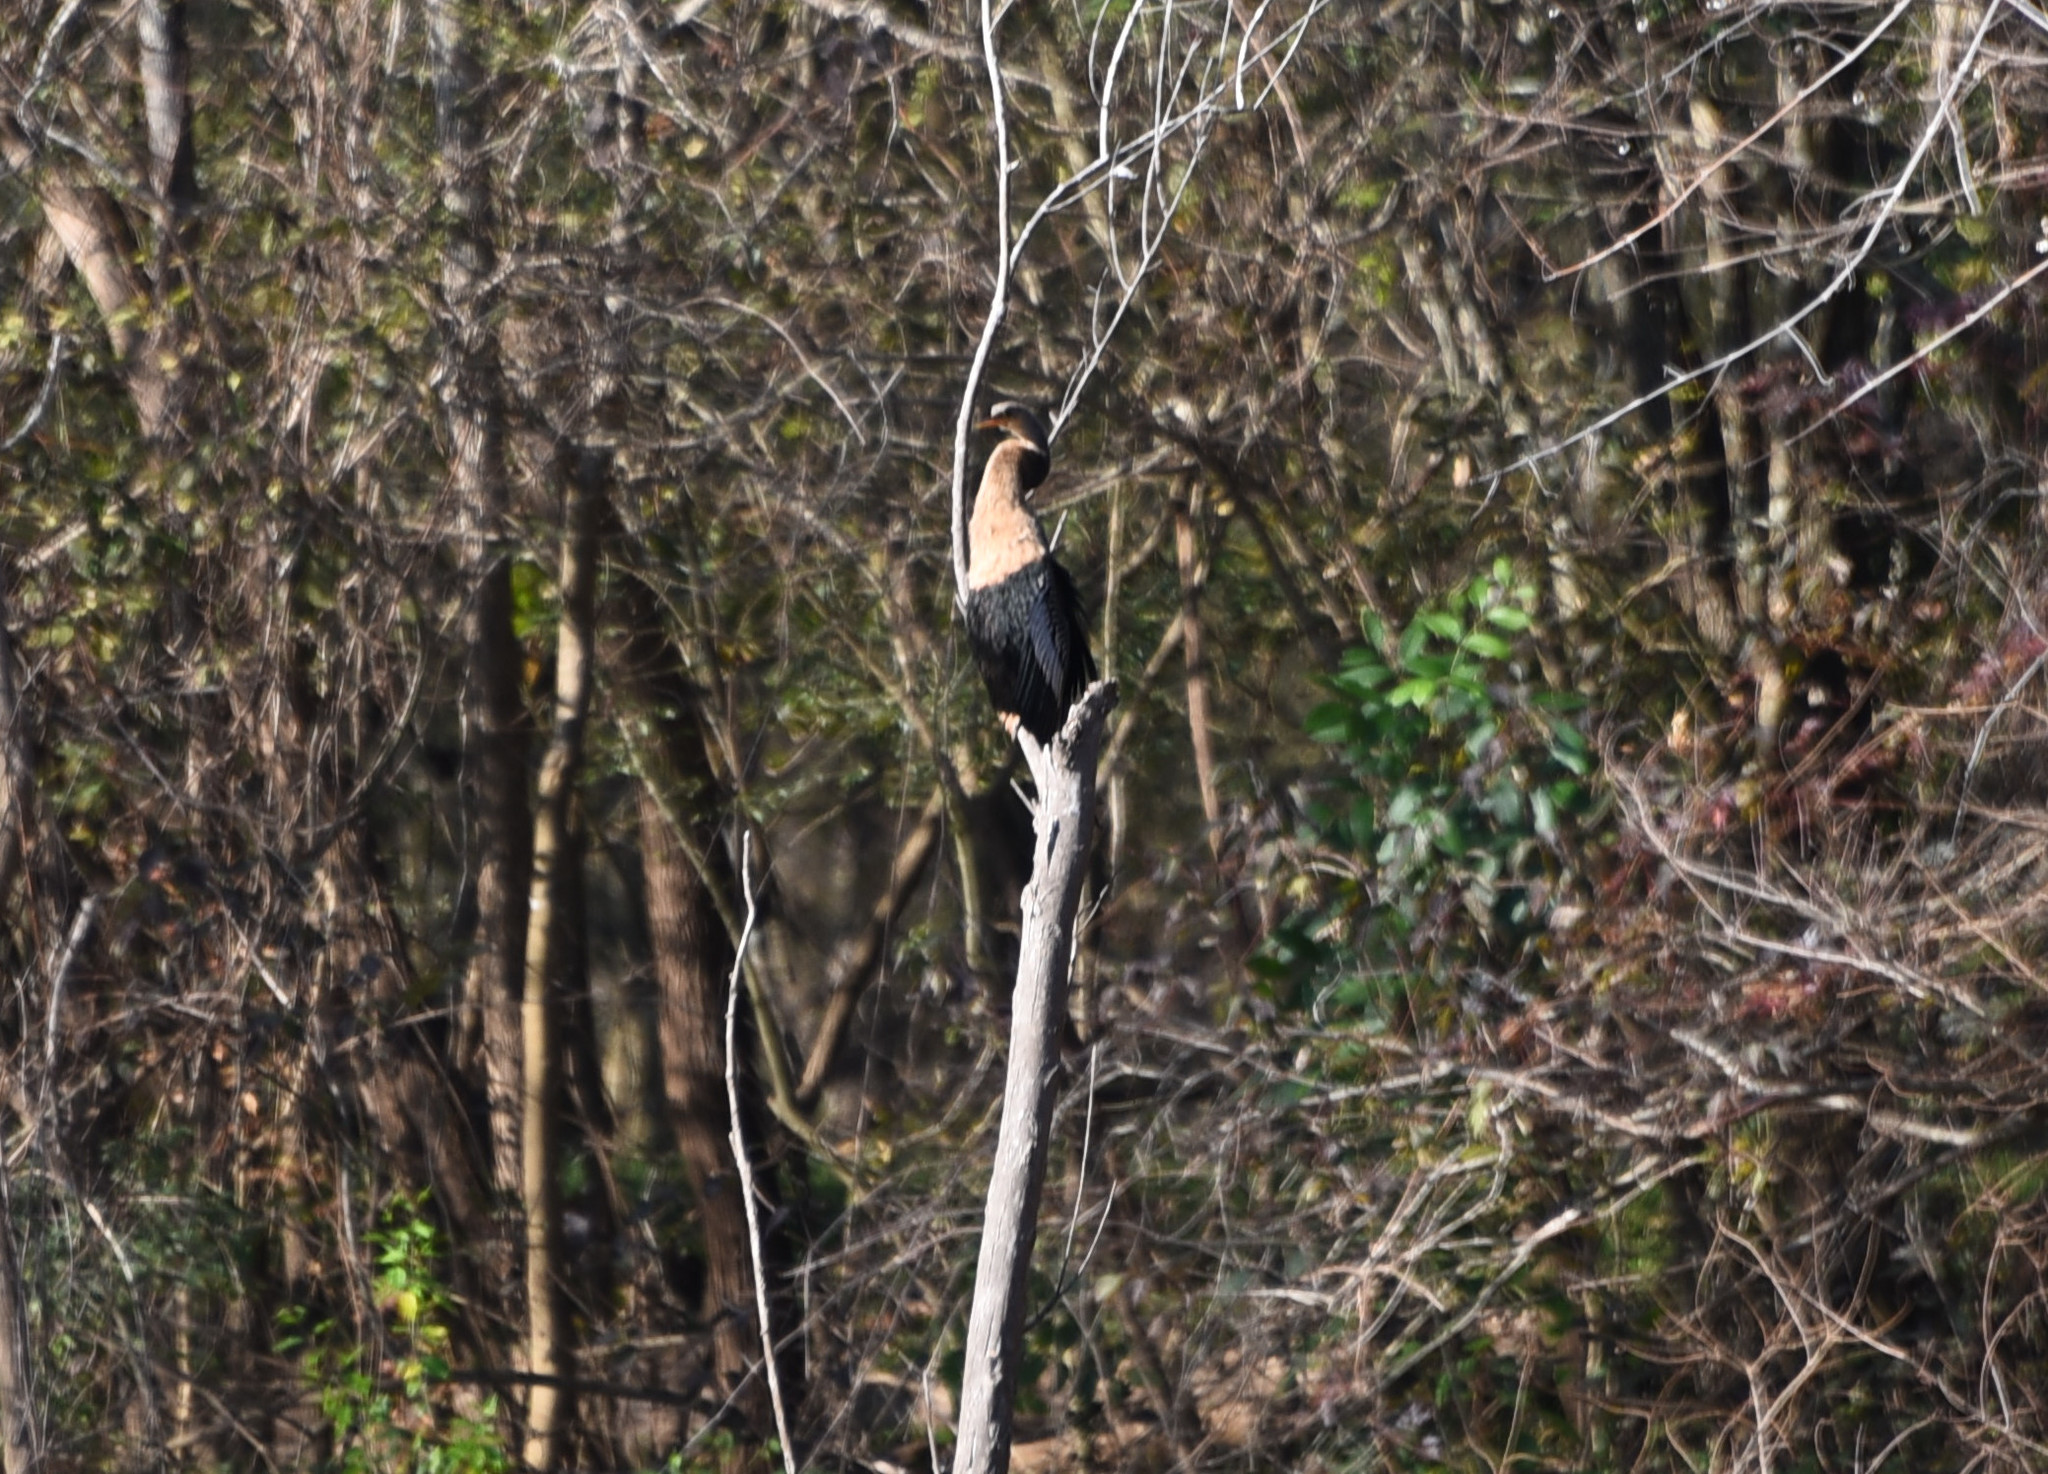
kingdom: Animalia
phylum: Chordata
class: Aves
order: Suliformes
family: Anhingidae
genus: Anhinga
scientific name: Anhinga anhinga
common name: Anhinga
